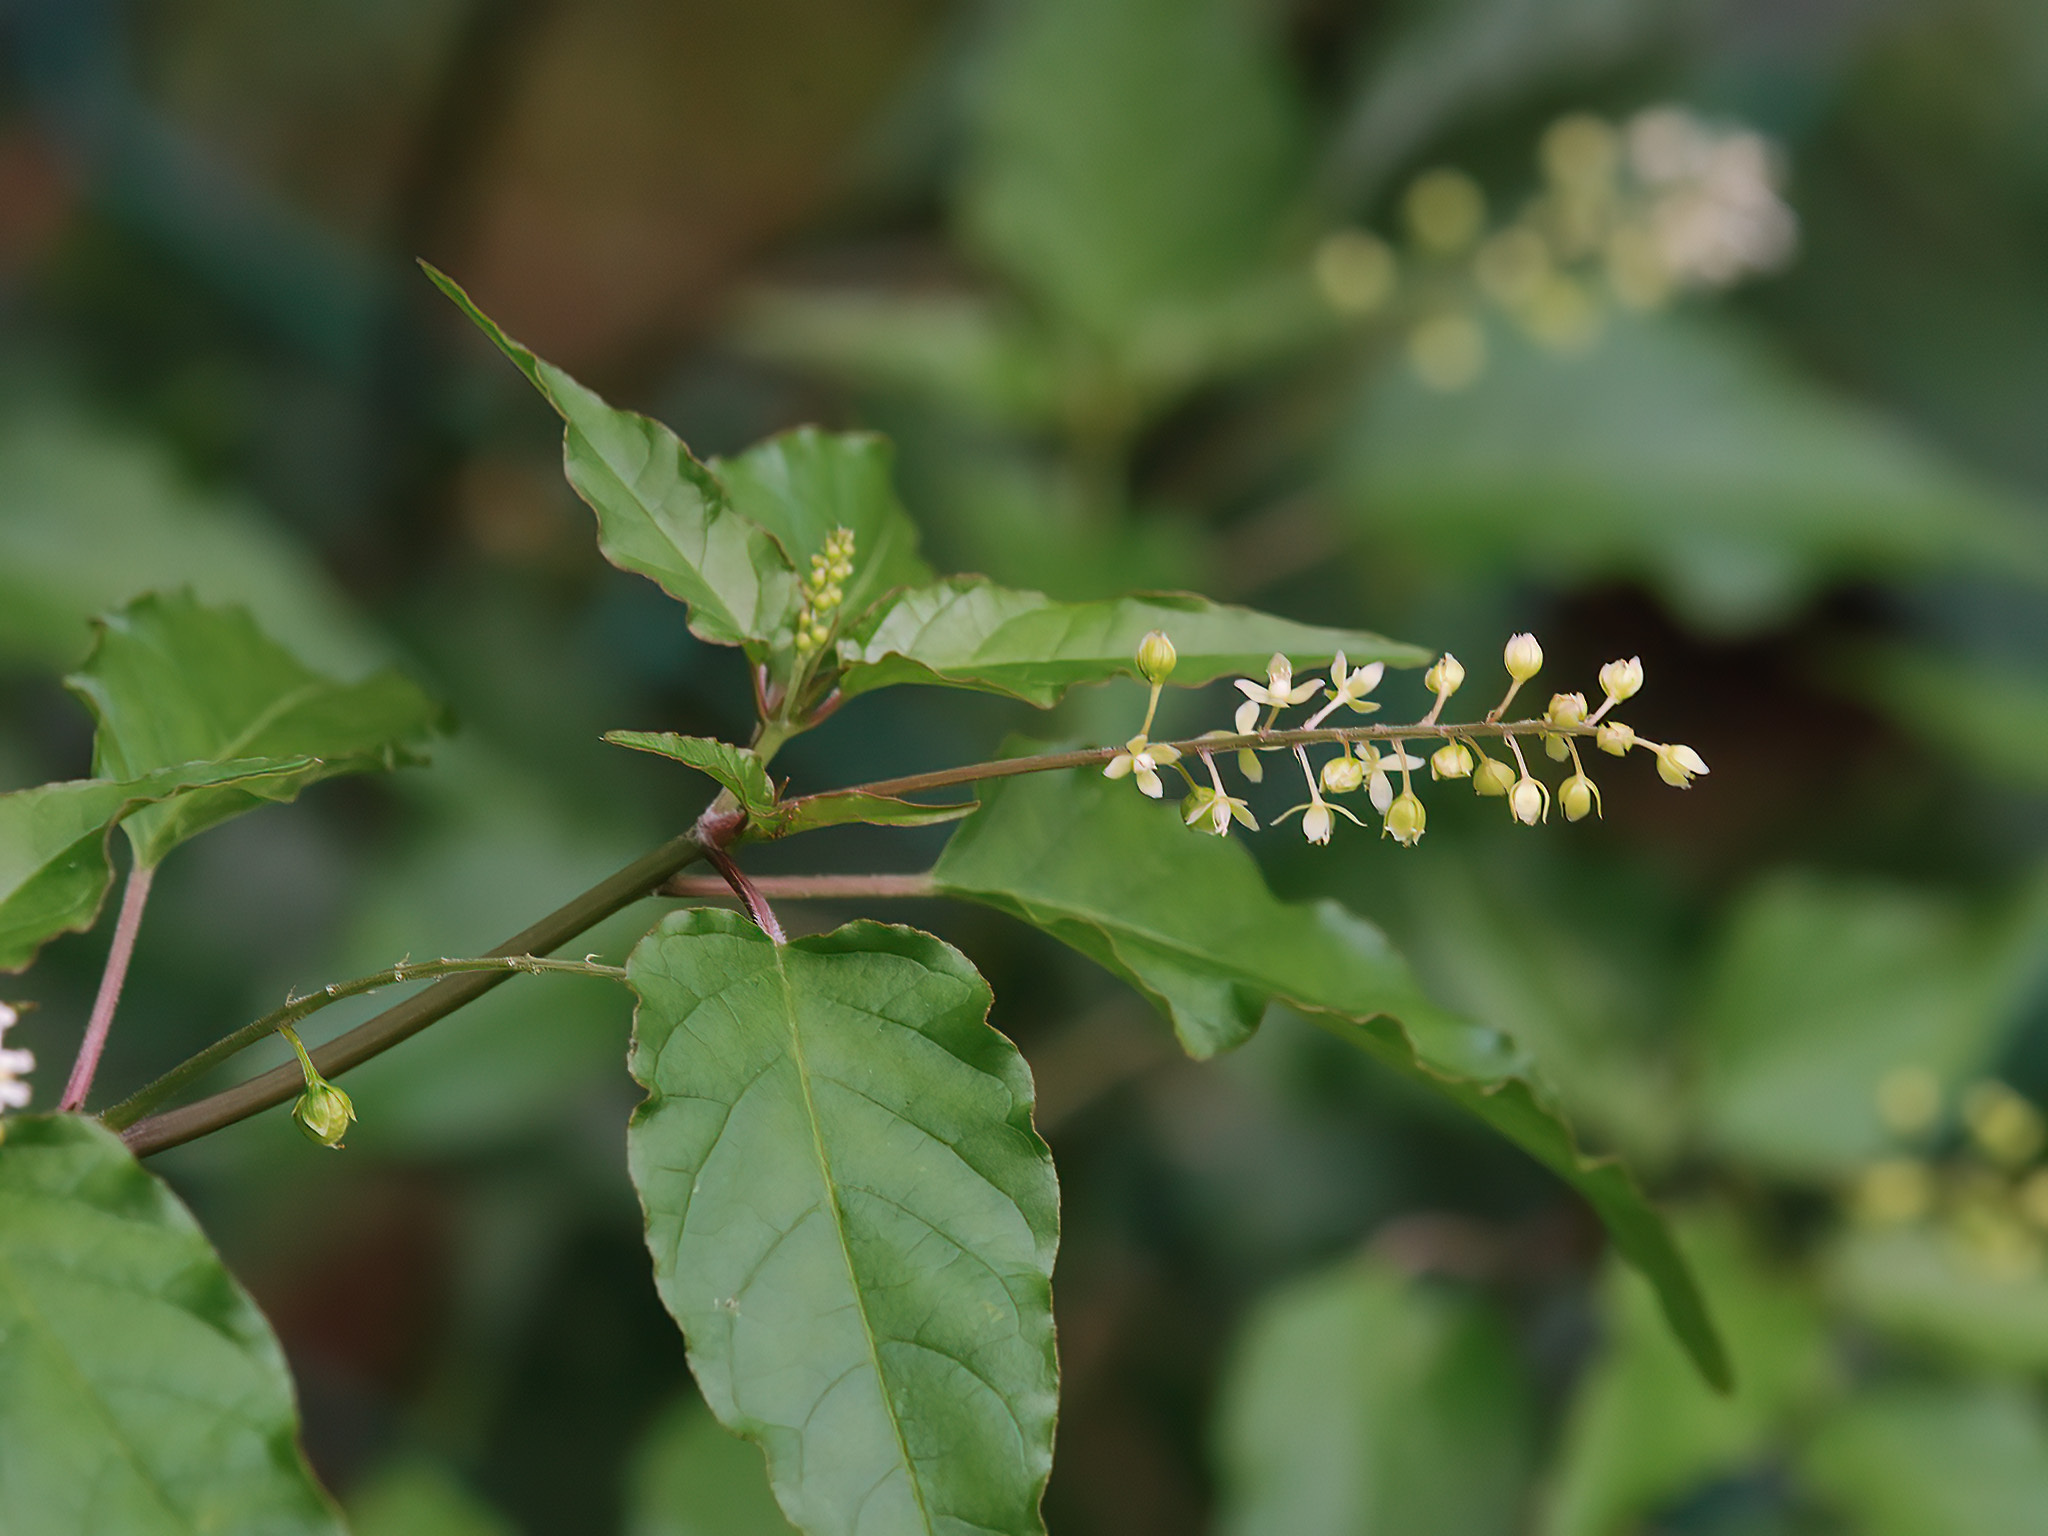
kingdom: Plantae
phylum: Tracheophyta
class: Magnoliopsida
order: Caryophyllales
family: Phytolaccaceae
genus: Rivina
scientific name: Rivina humilis
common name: Rougeplant
